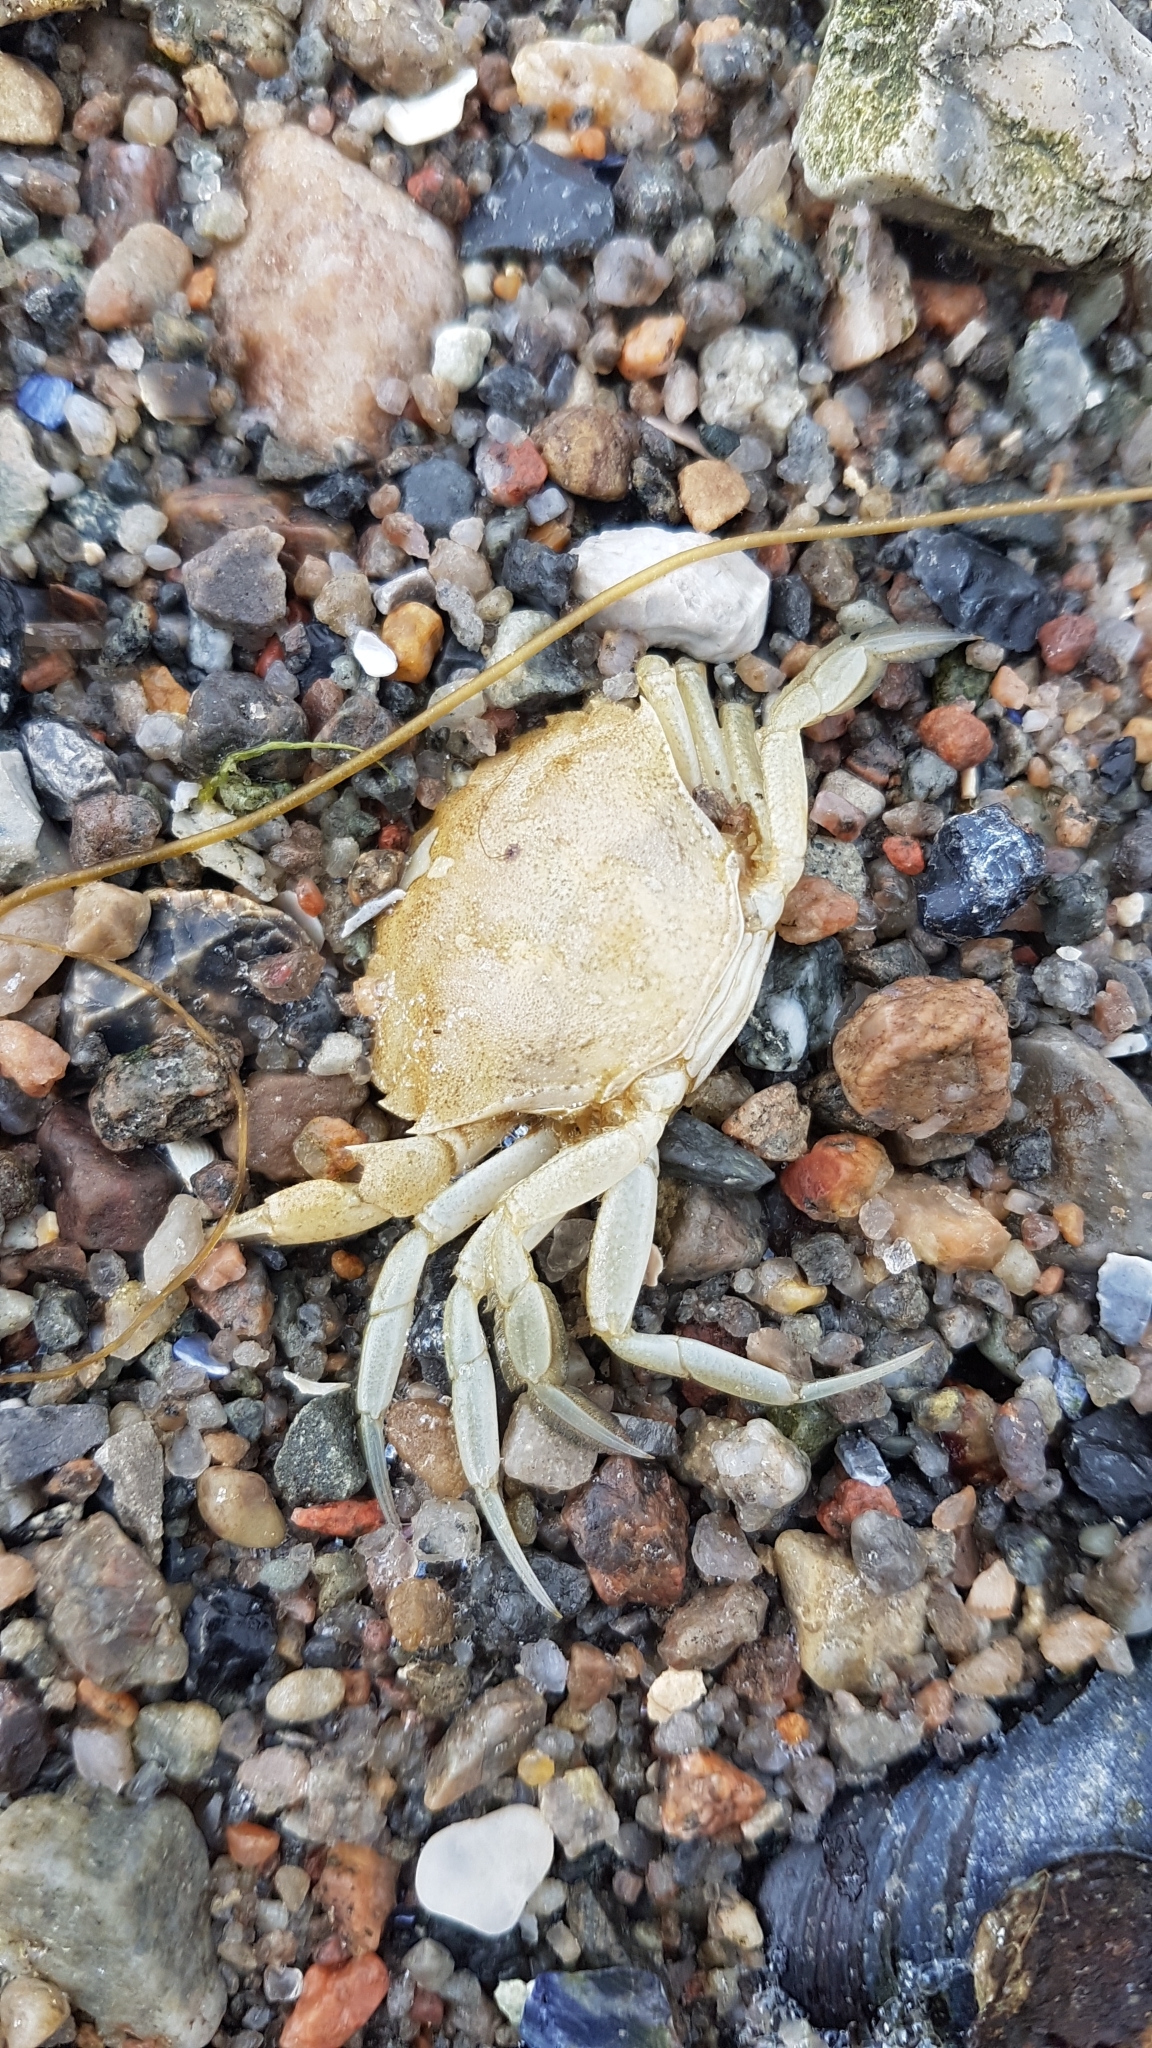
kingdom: Animalia
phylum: Arthropoda
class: Malacostraca
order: Decapoda
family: Carcinidae
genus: Carcinus
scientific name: Carcinus maenas
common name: European green crab
